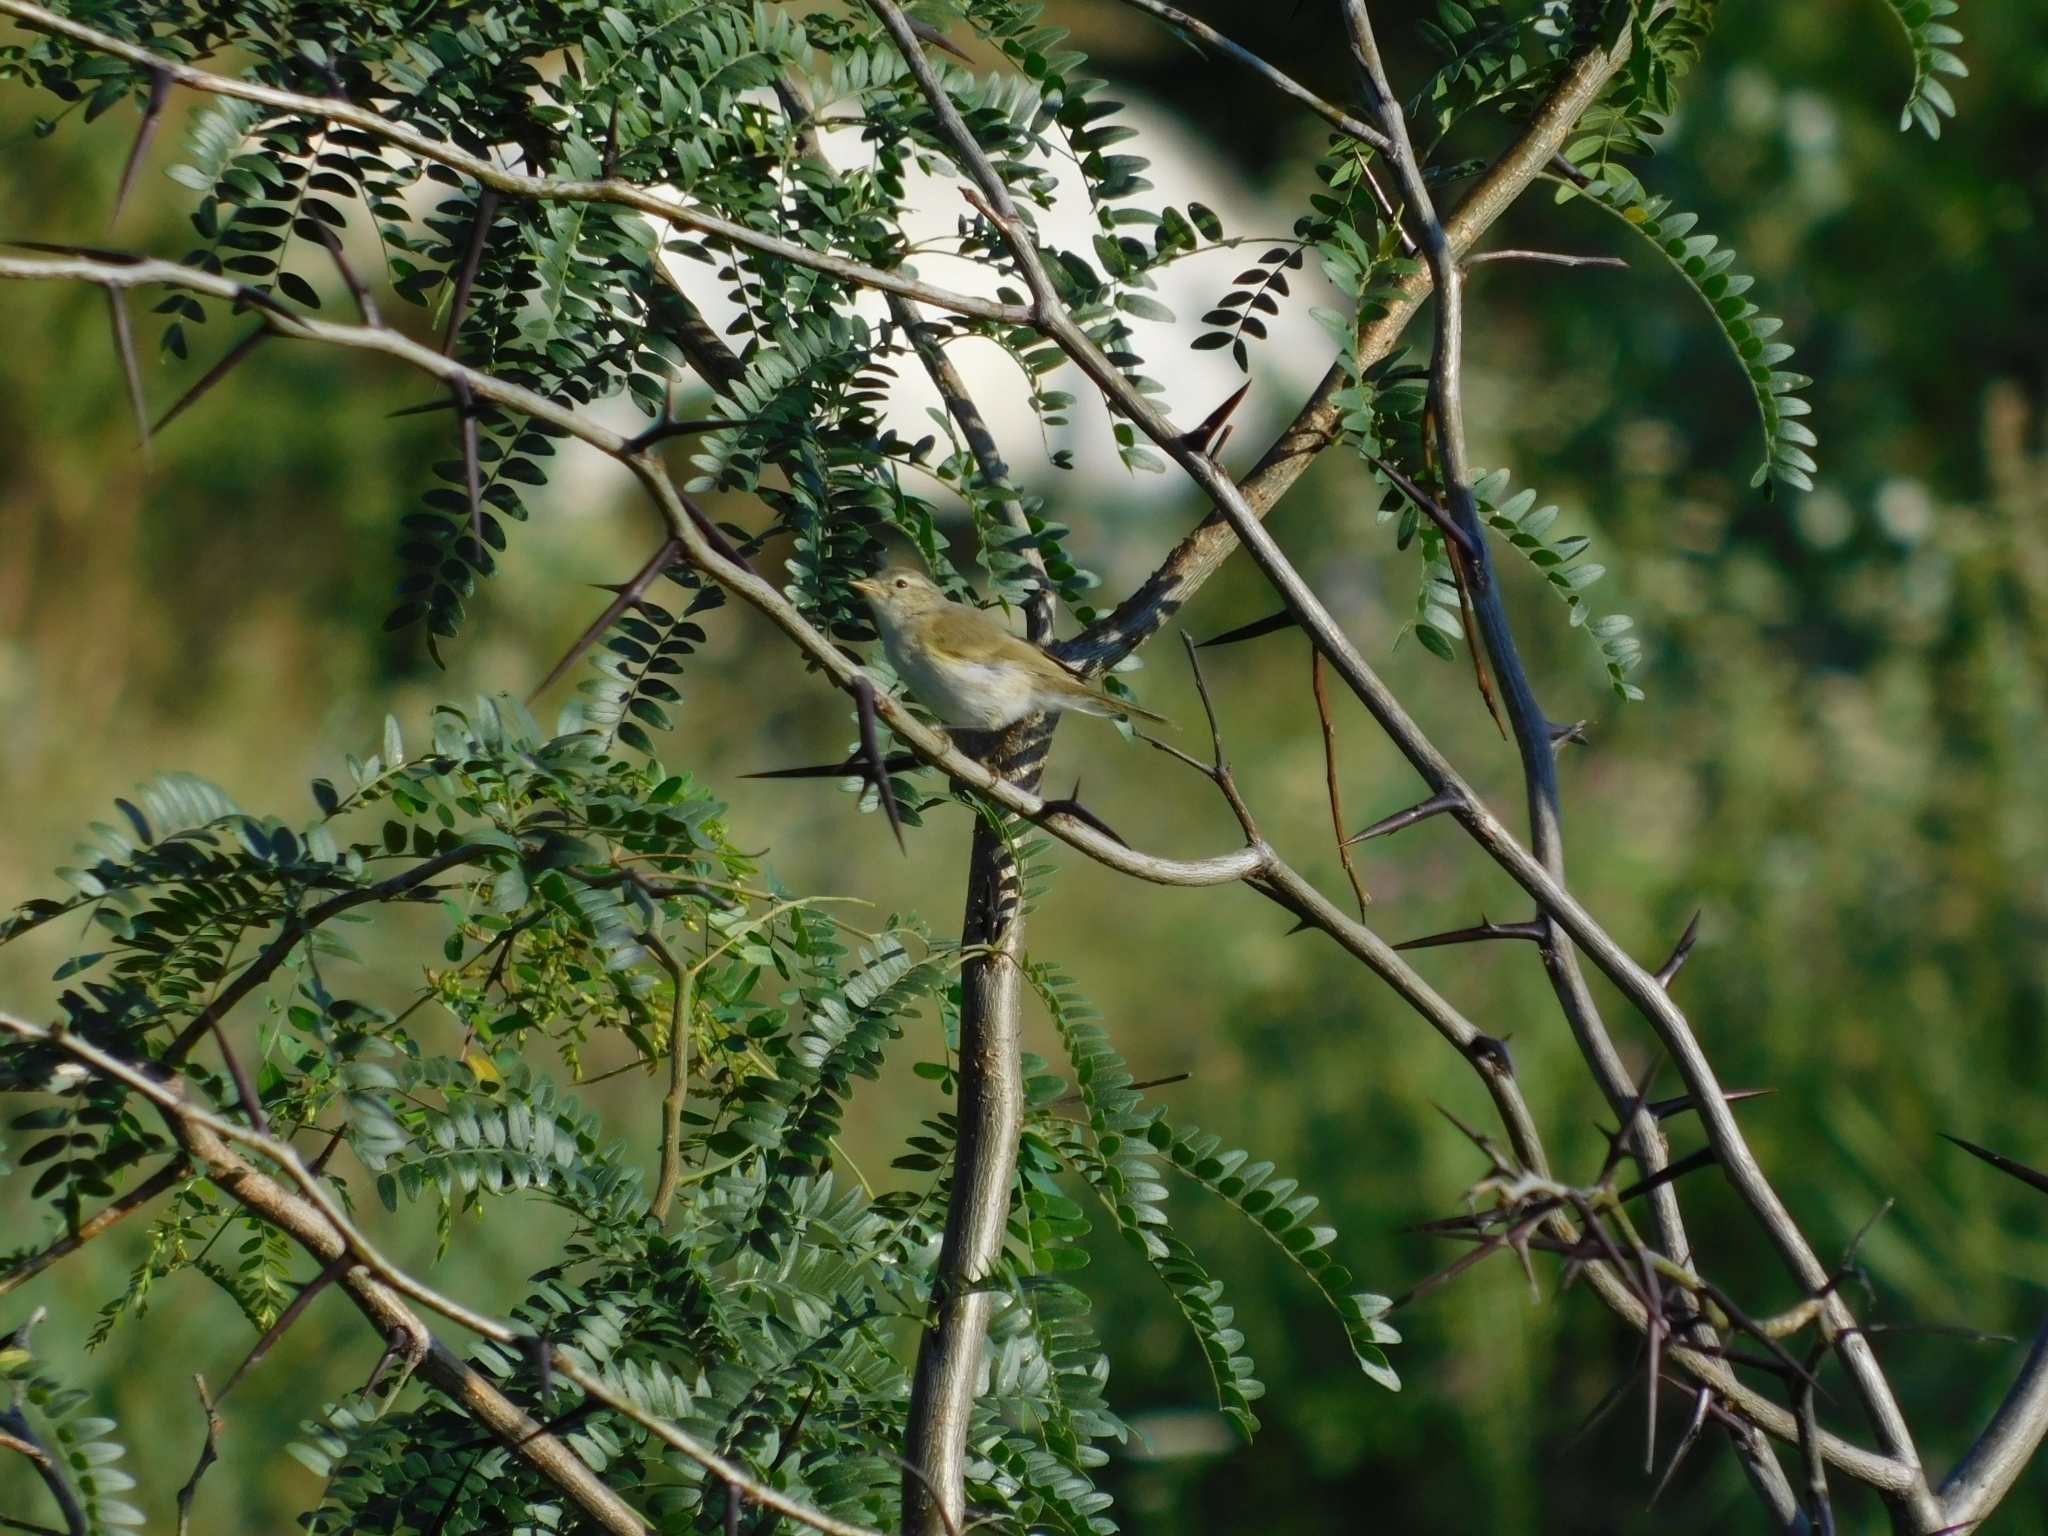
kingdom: Animalia
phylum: Chordata
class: Aves
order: Passeriformes
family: Phylloscopidae
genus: Phylloscopus
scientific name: Phylloscopus collybita
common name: Common chiffchaff
